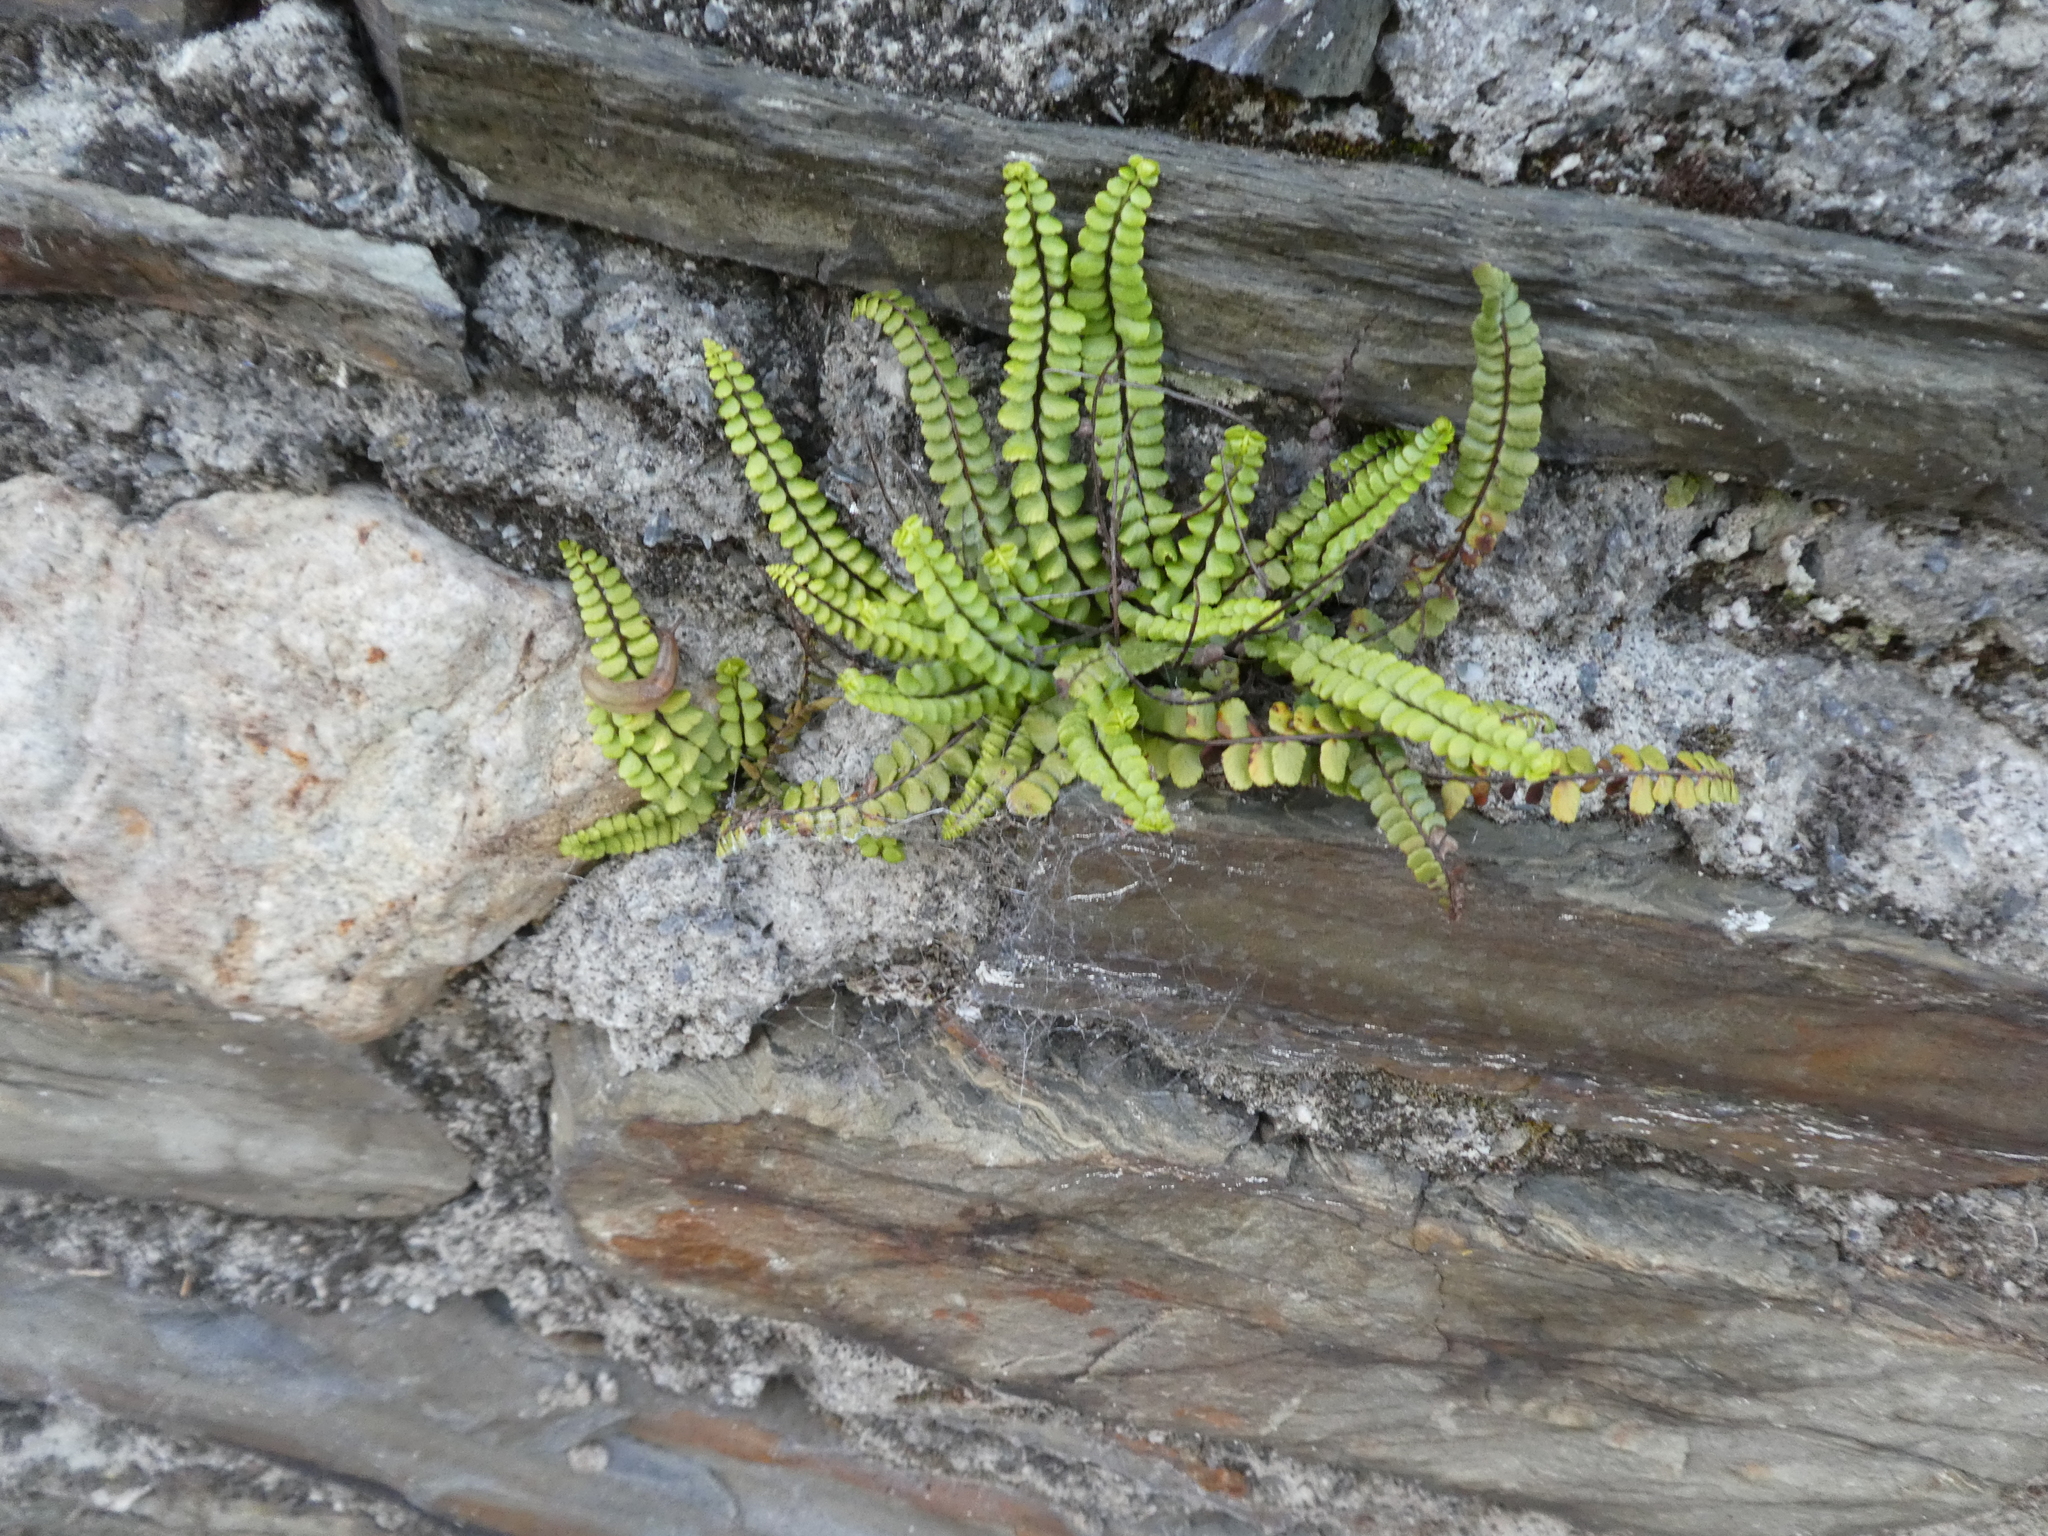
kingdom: Plantae
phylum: Tracheophyta
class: Polypodiopsida
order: Polypodiales
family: Aspleniaceae
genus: Asplenium
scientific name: Asplenium trichomanes
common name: Maidenhair spleenwort
